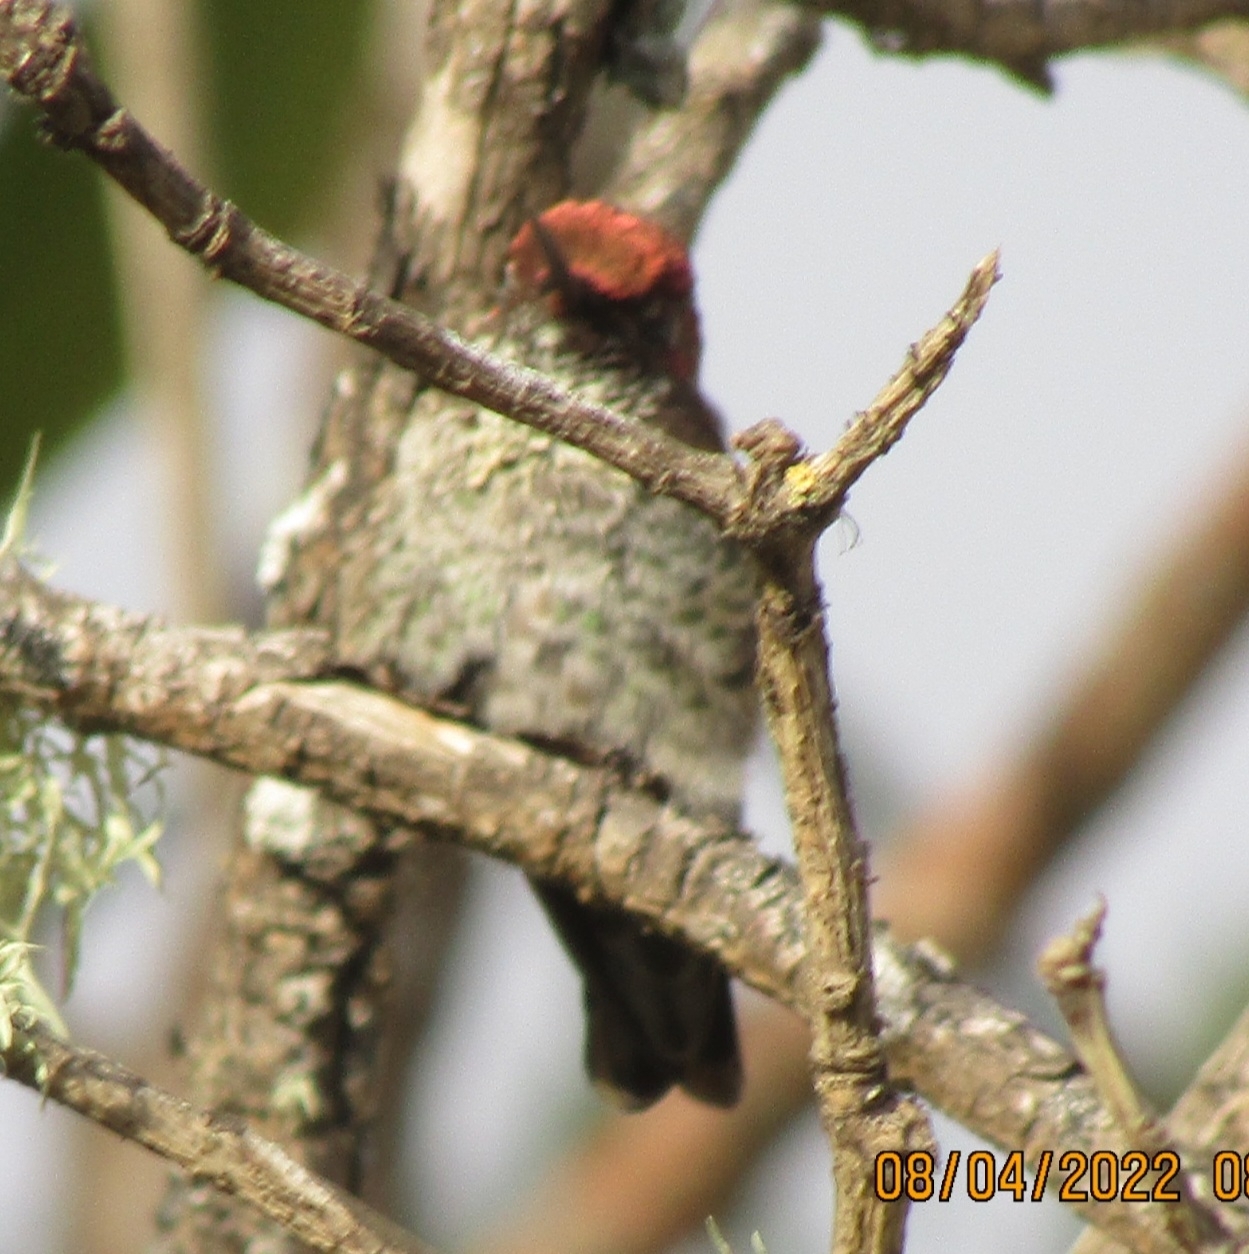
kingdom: Animalia
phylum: Chordata
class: Aves
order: Apodiformes
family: Trochilidae
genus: Calypte
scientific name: Calypte anna
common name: Anna's hummingbird
